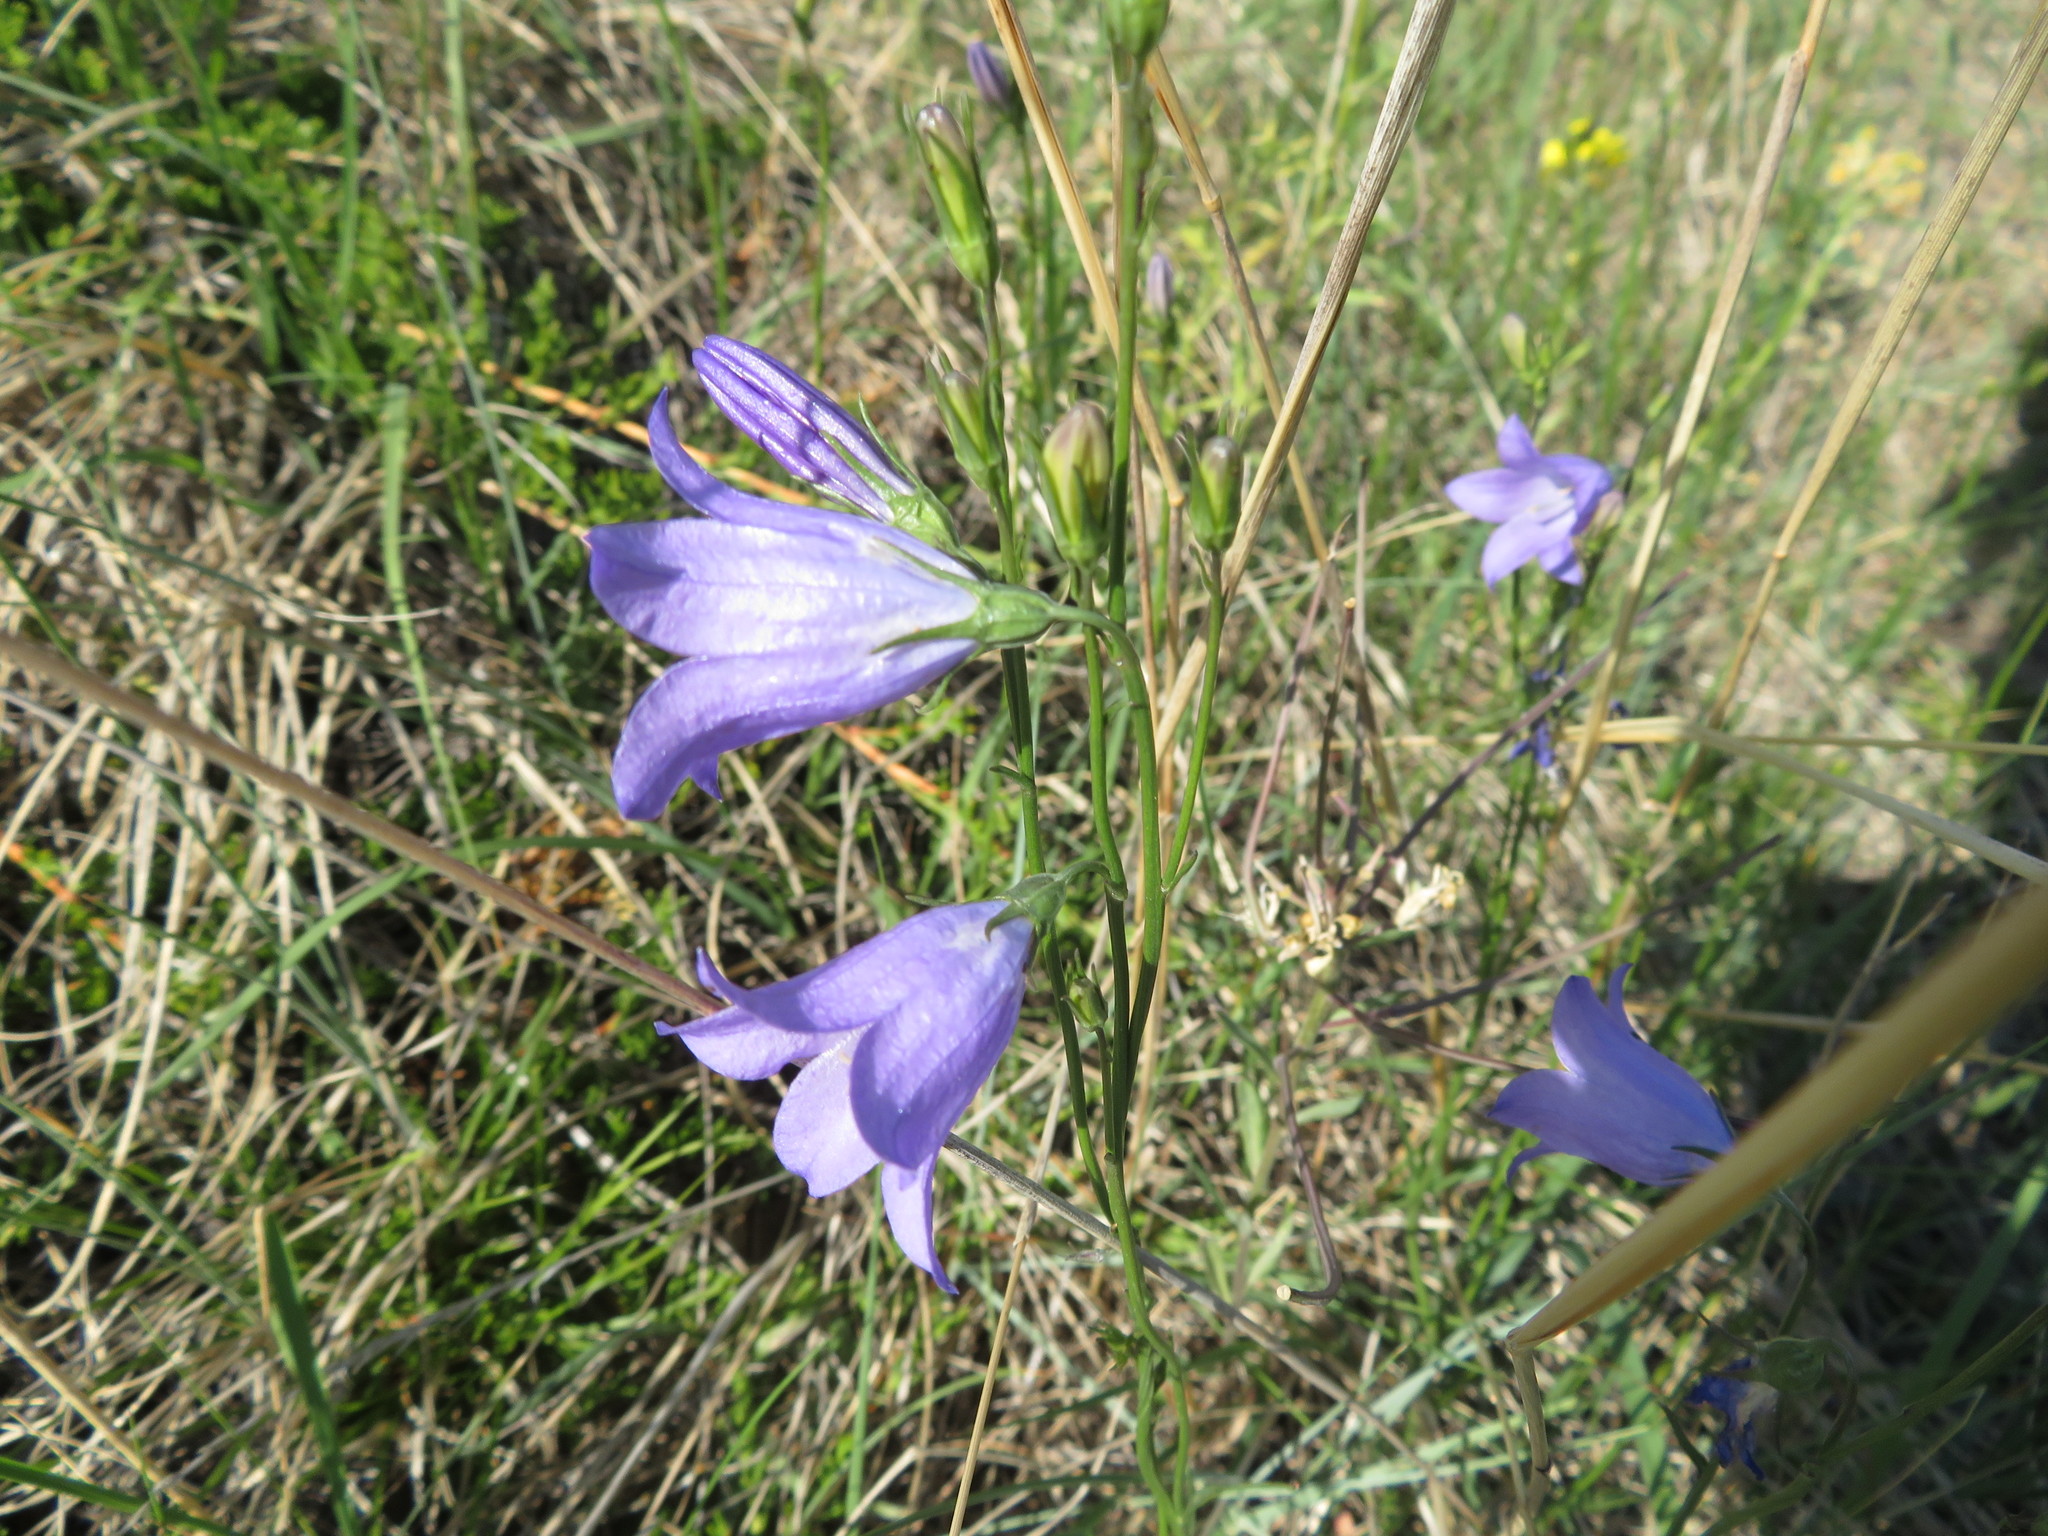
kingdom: Plantae
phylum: Tracheophyta
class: Magnoliopsida
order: Asterales
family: Campanulaceae
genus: Campanula
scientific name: Campanula alaskana
